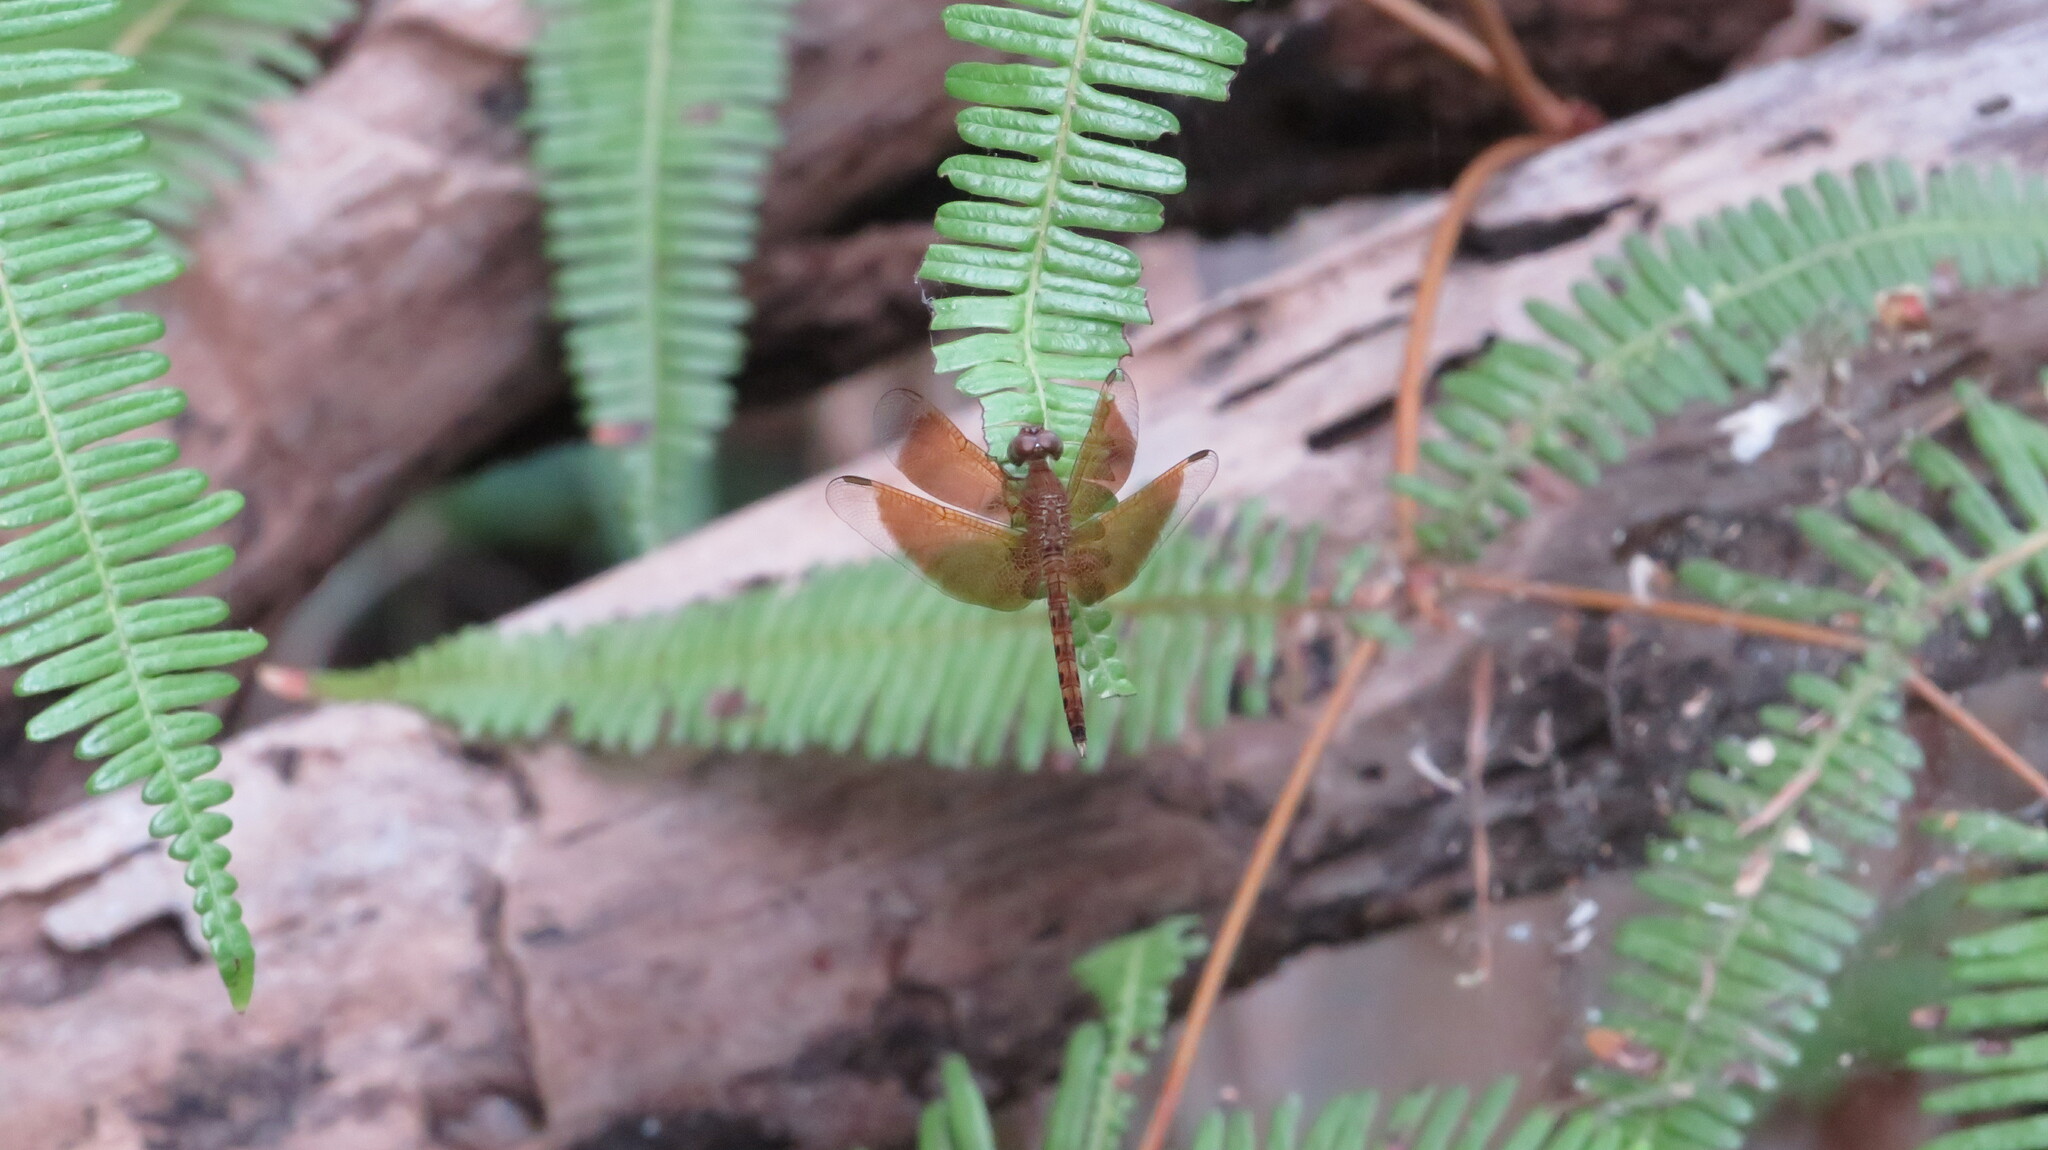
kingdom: Animalia
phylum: Arthropoda
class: Insecta
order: Odonata
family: Libellulidae
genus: Neurothemis
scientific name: Neurothemis fluctuans
